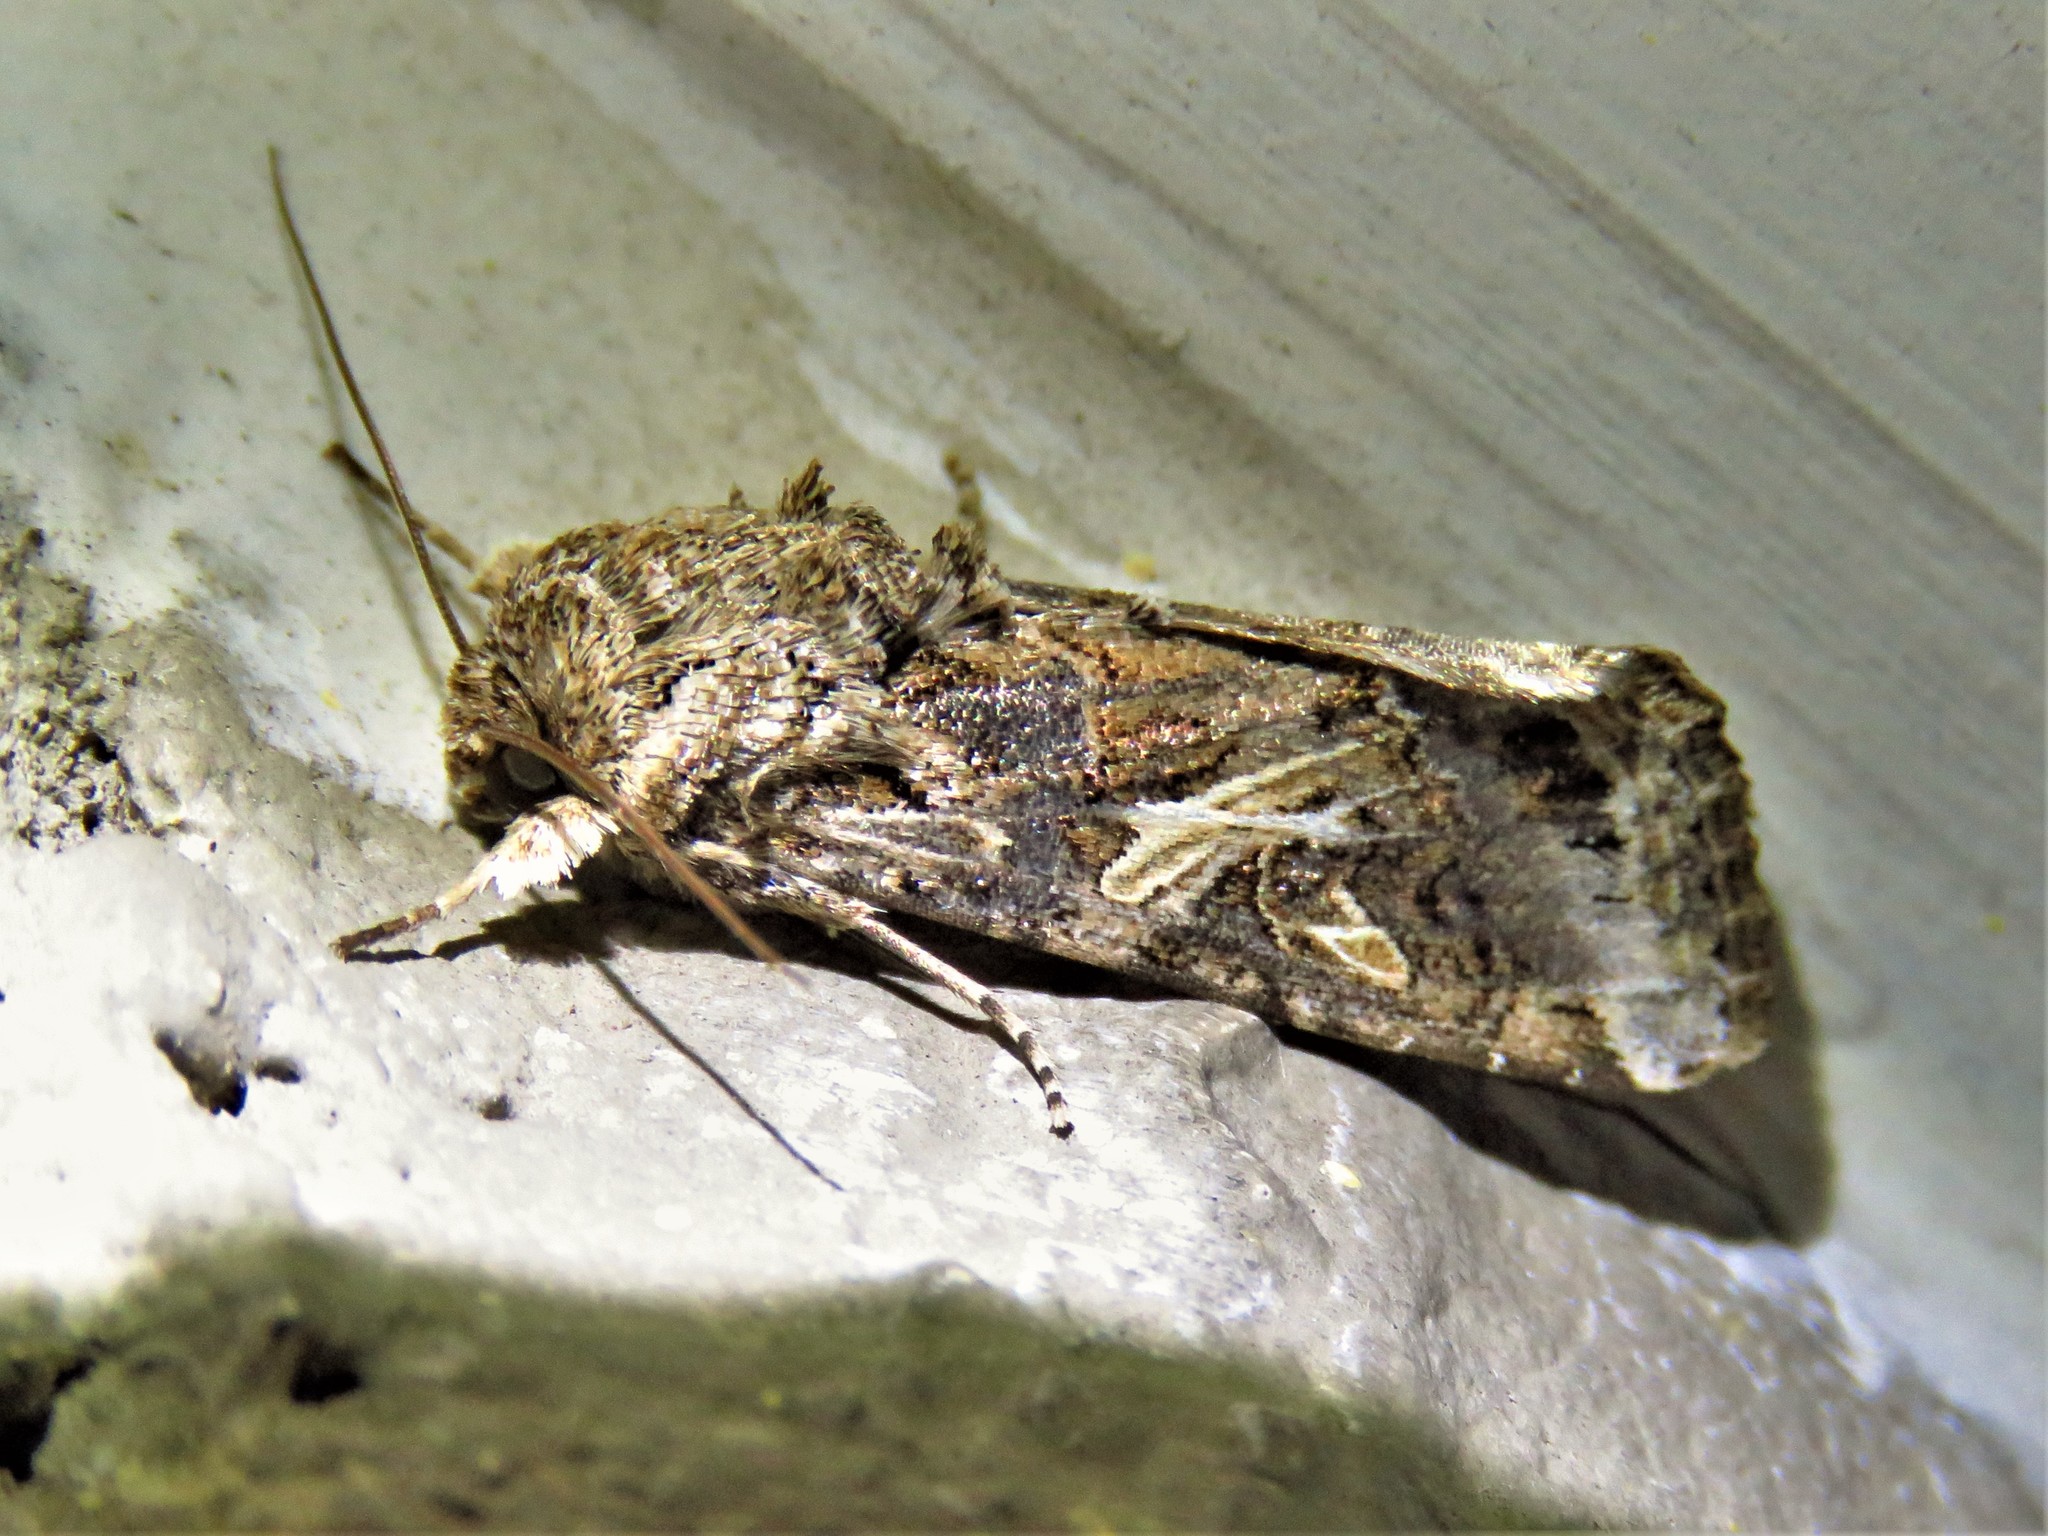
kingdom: Animalia
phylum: Arthropoda
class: Insecta
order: Lepidoptera
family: Noctuidae
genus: Spodoptera
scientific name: Spodoptera ornithogalli
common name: Yellow-striped armyworm
